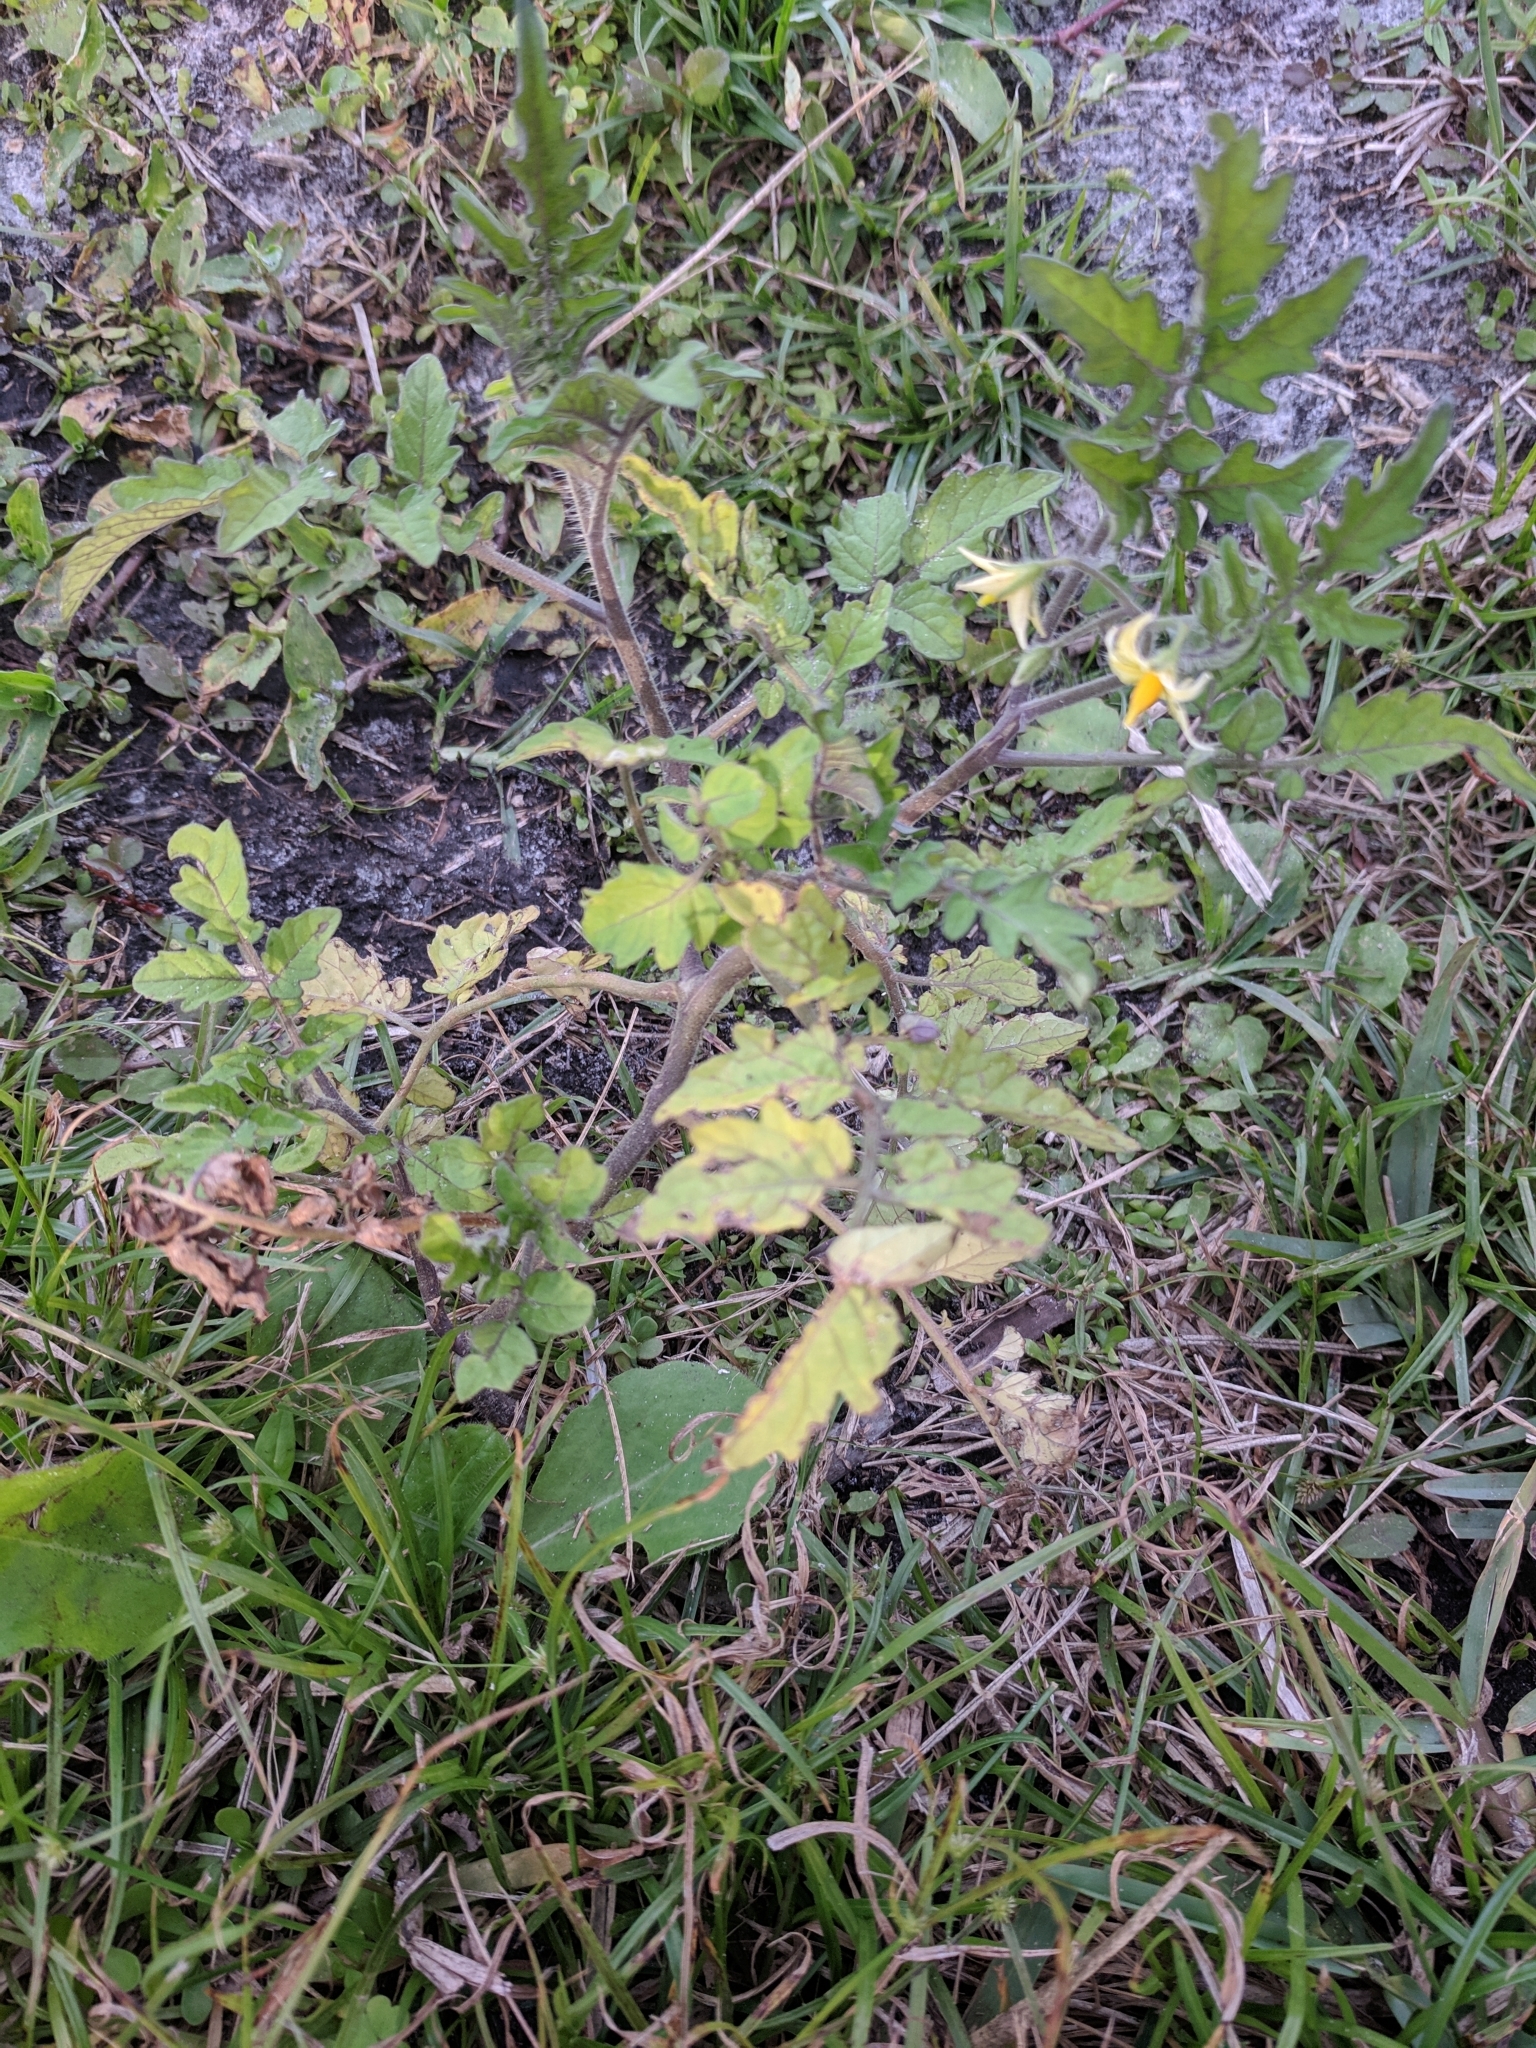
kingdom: Plantae
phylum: Tracheophyta
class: Magnoliopsida
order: Solanales
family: Solanaceae
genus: Solanum
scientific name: Solanum lycopersicum
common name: Garden tomato
